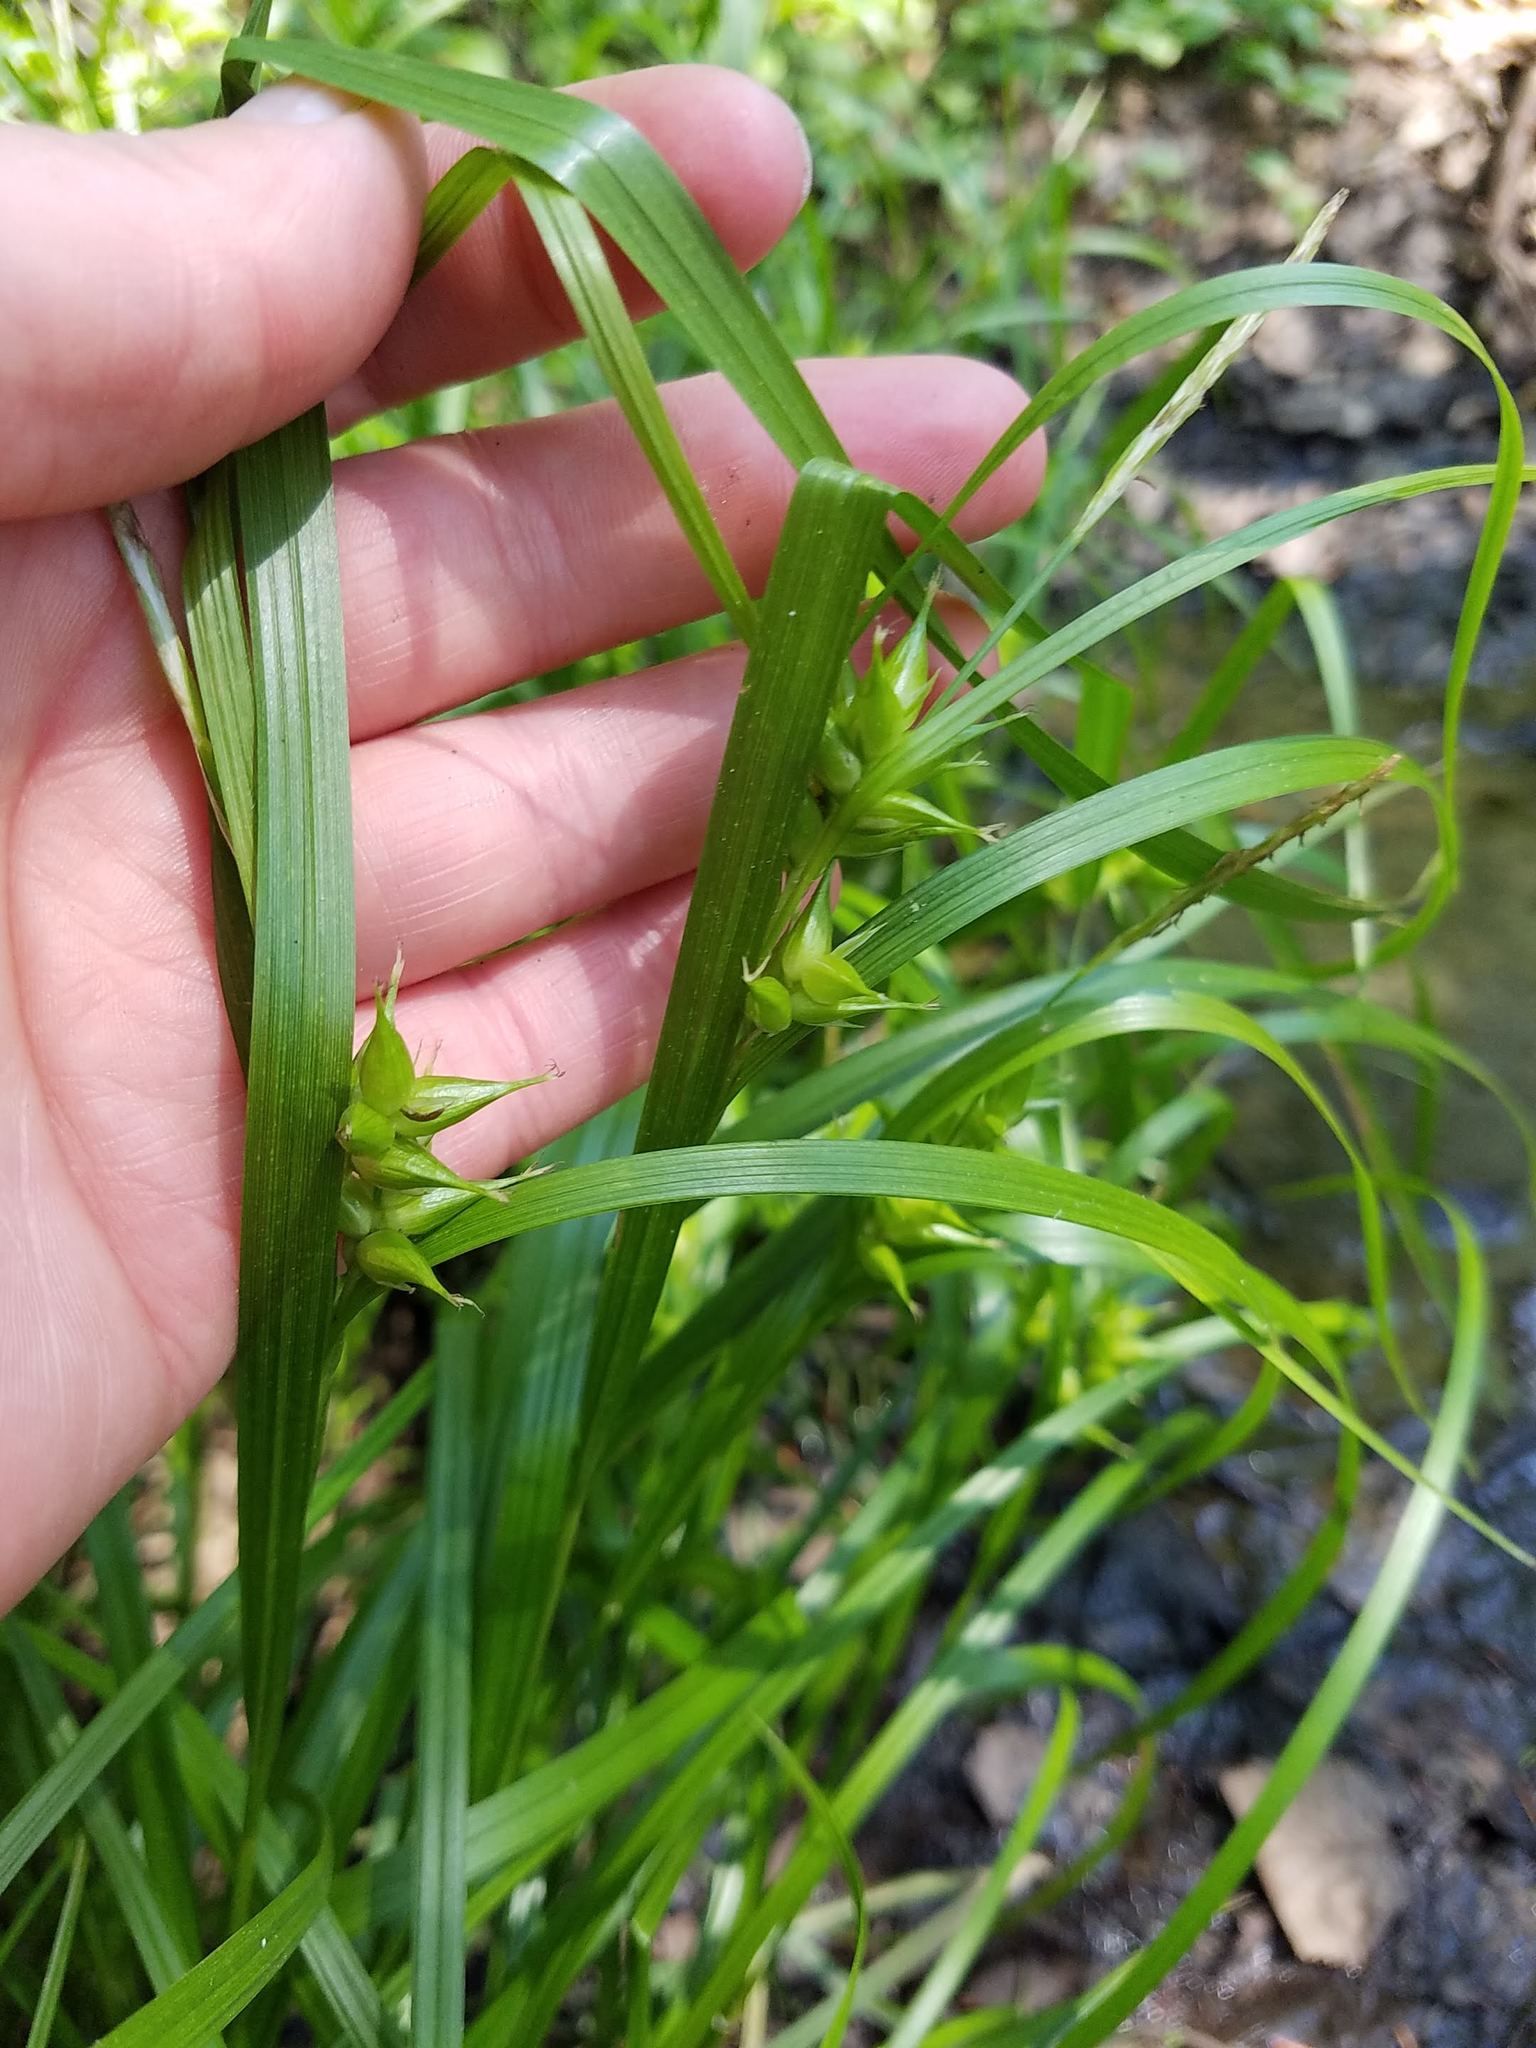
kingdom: Plantae
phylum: Tracheophyta
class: Liliopsida
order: Poales
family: Cyperaceae
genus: Carex
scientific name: Carex intumescens
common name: Greater bladder sedge
